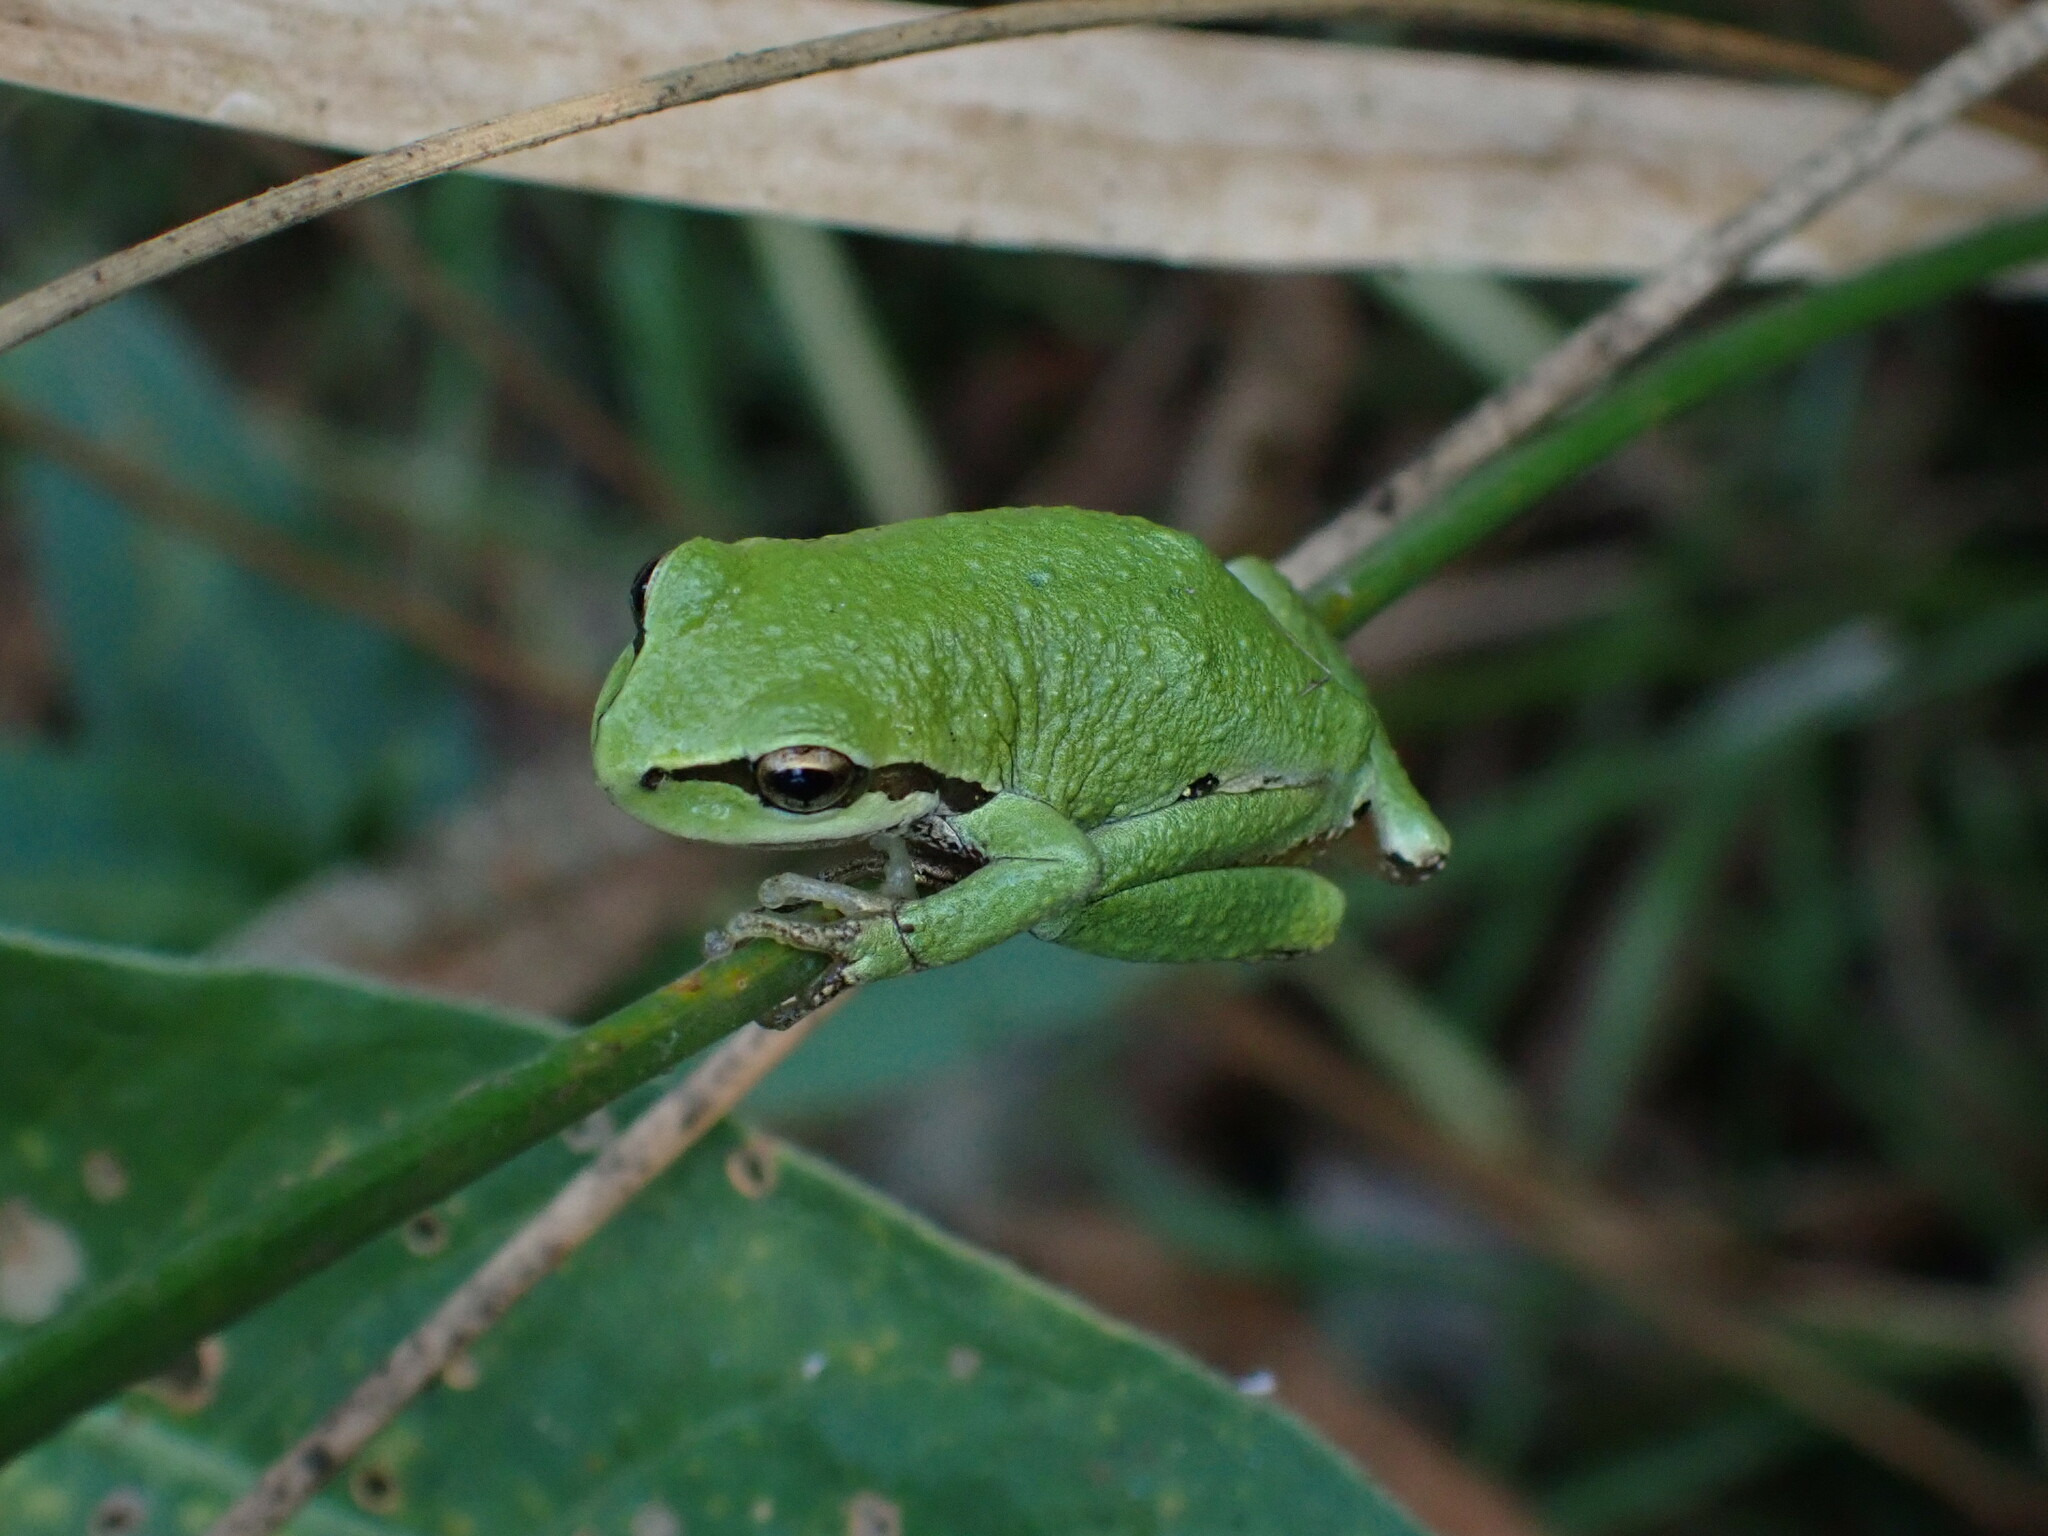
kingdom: Animalia
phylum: Chordata
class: Amphibia
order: Anura
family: Hylidae
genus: Pseudacris
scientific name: Pseudacris regilla
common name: Pacific chorus frog
